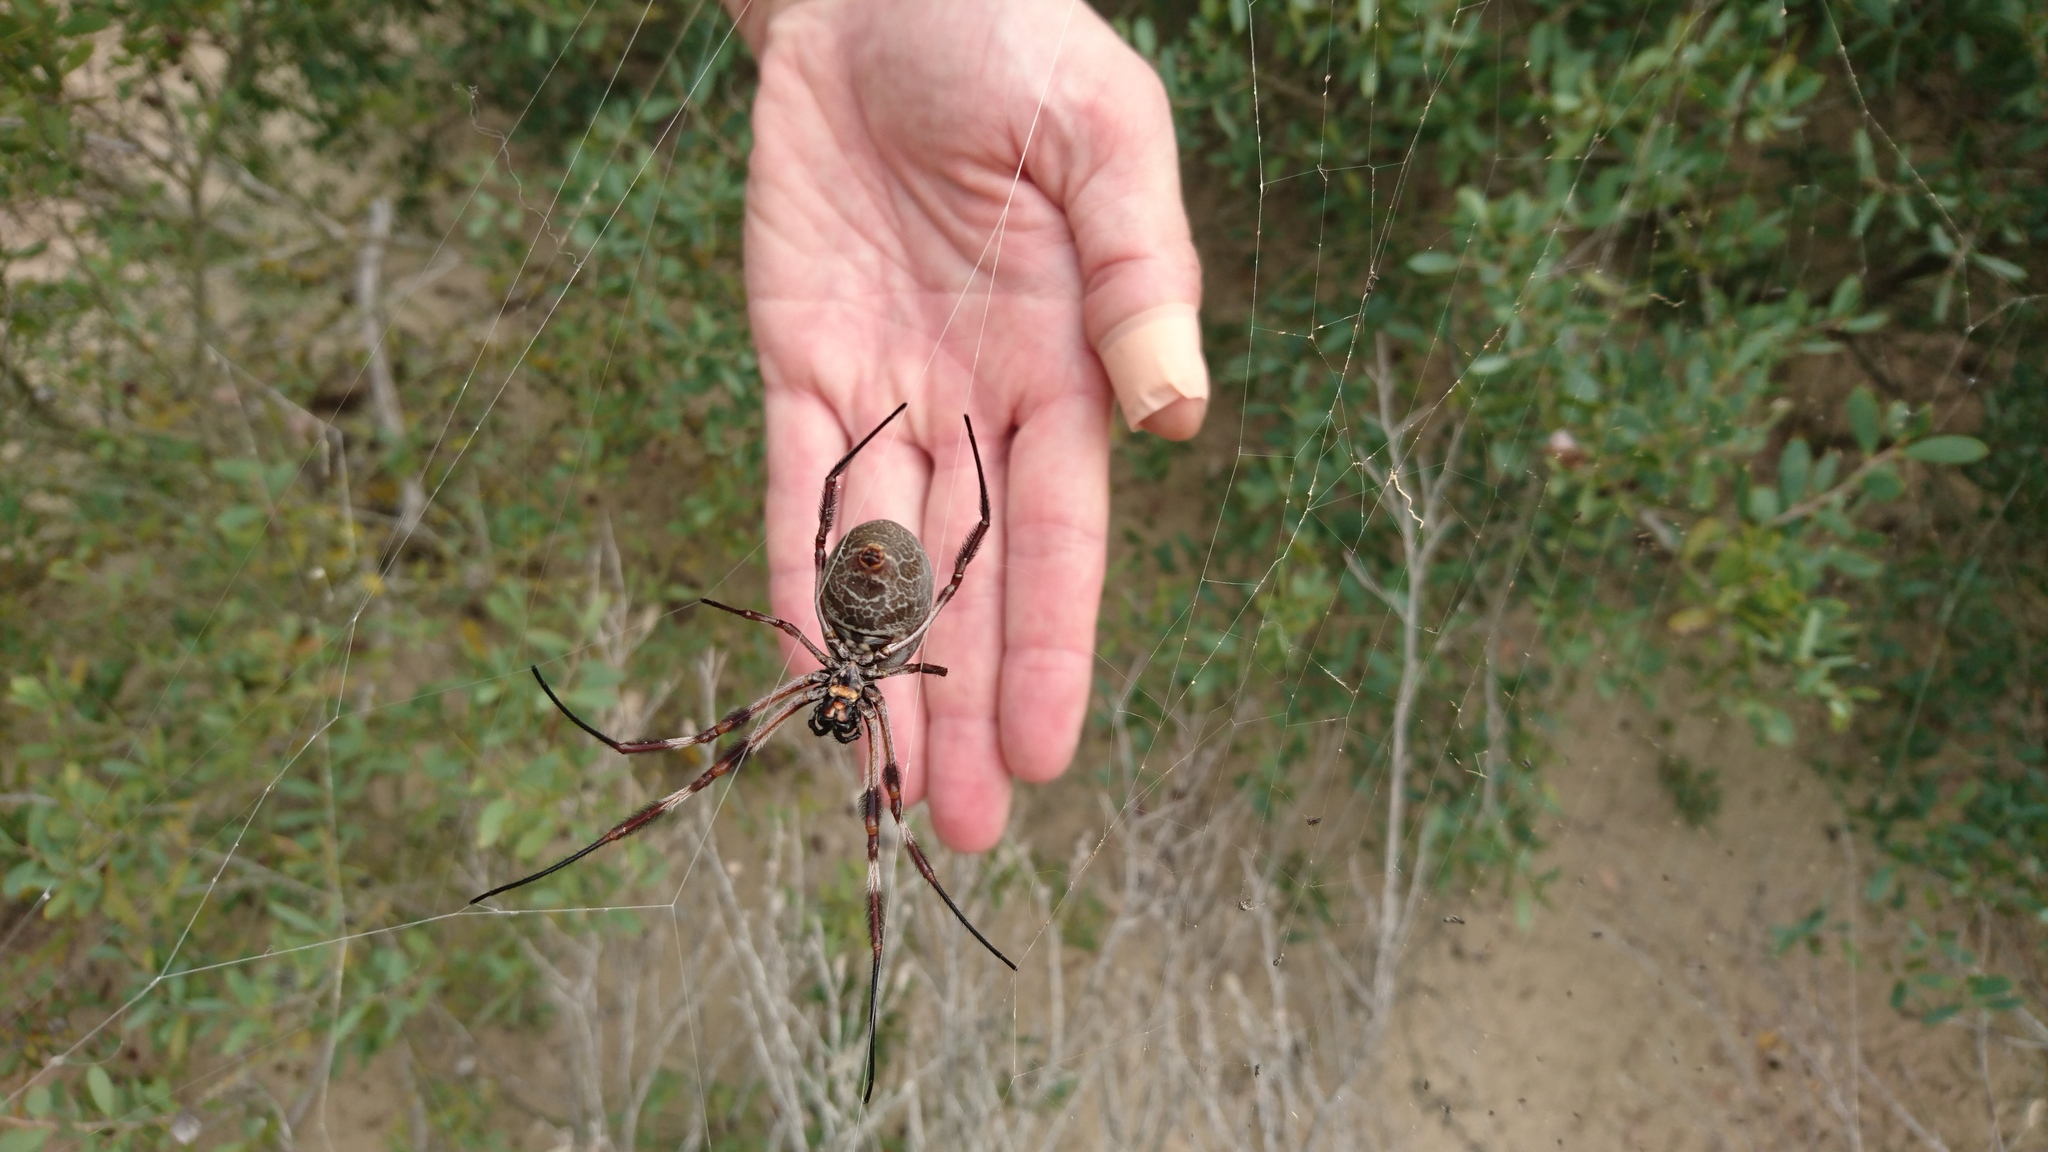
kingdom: Animalia
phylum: Arthropoda
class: Arachnida
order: Araneae
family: Araneidae
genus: Trichonephila
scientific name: Trichonephila edulis
